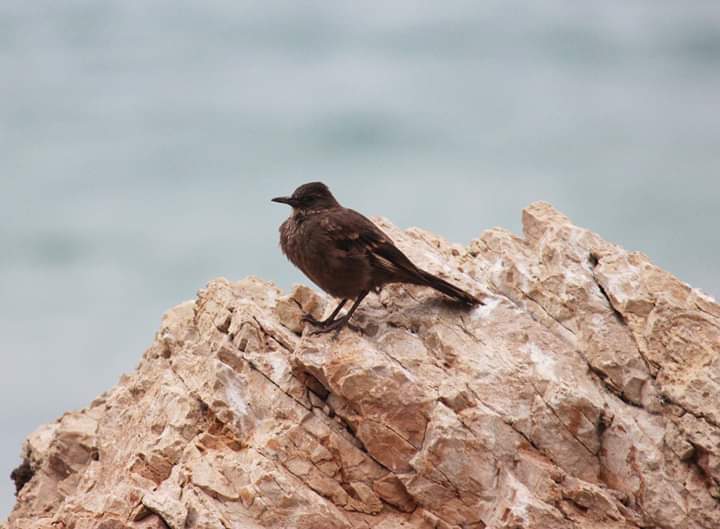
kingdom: Animalia
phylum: Chordata
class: Aves
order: Passeriformes
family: Furnariidae
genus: Cinclodes
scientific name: Cinclodes taczanowskii
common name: Peruvian seaside cinclodes
